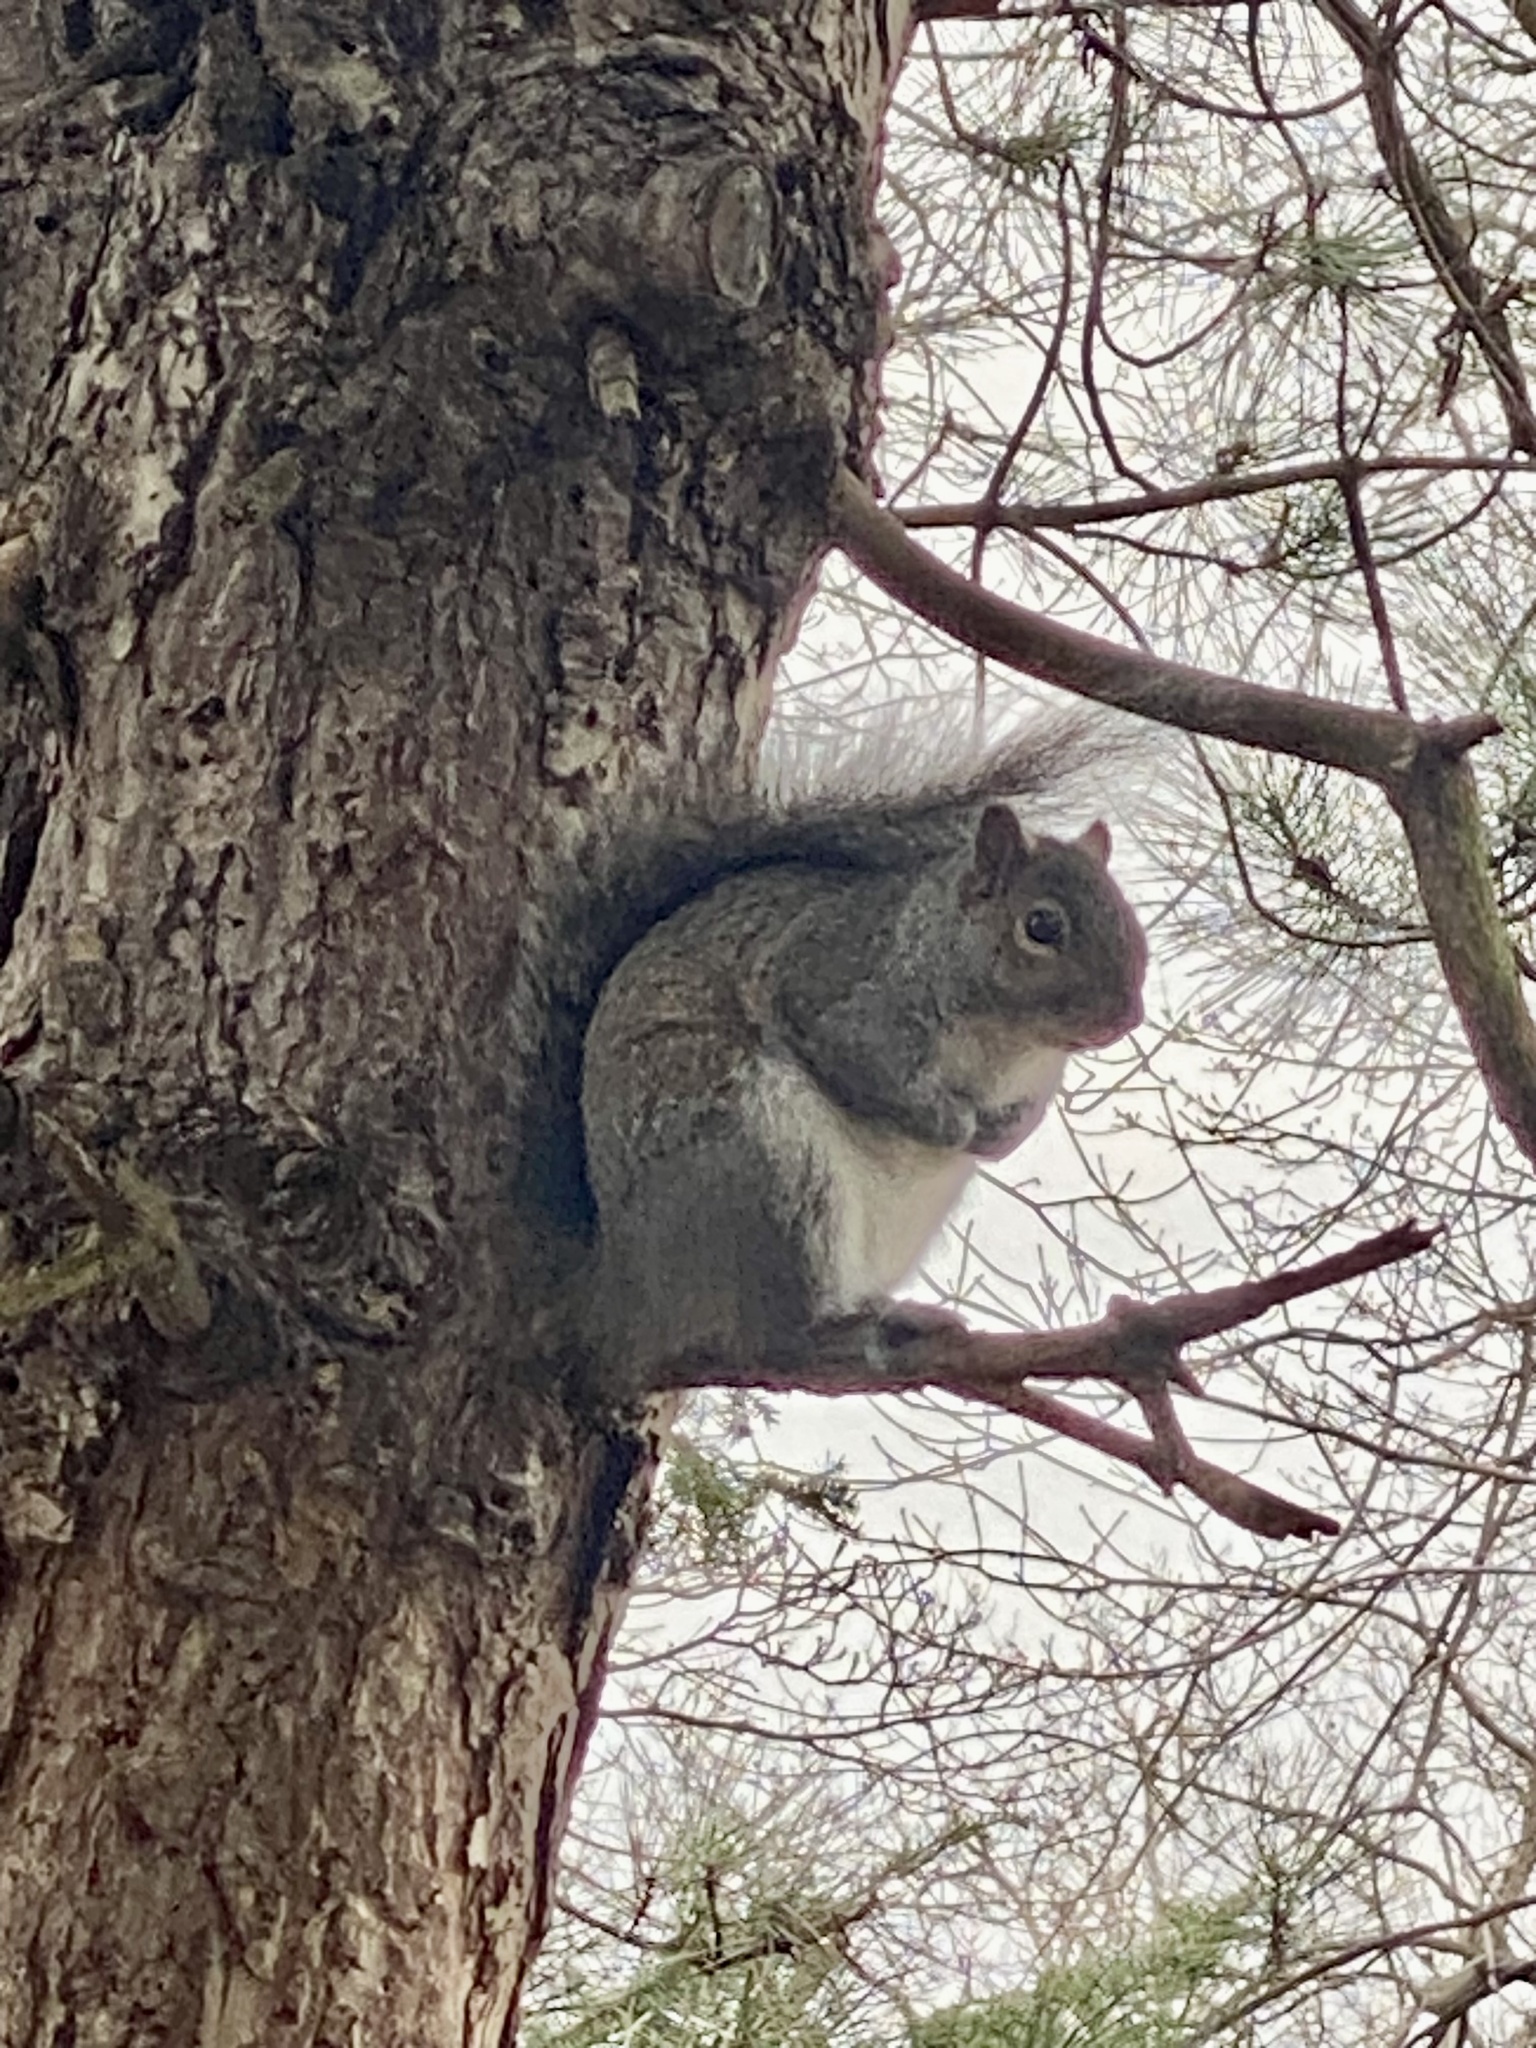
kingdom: Animalia
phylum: Chordata
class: Mammalia
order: Rodentia
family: Sciuridae
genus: Sciurus
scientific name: Sciurus carolinensis
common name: Eastern gray squirrel
